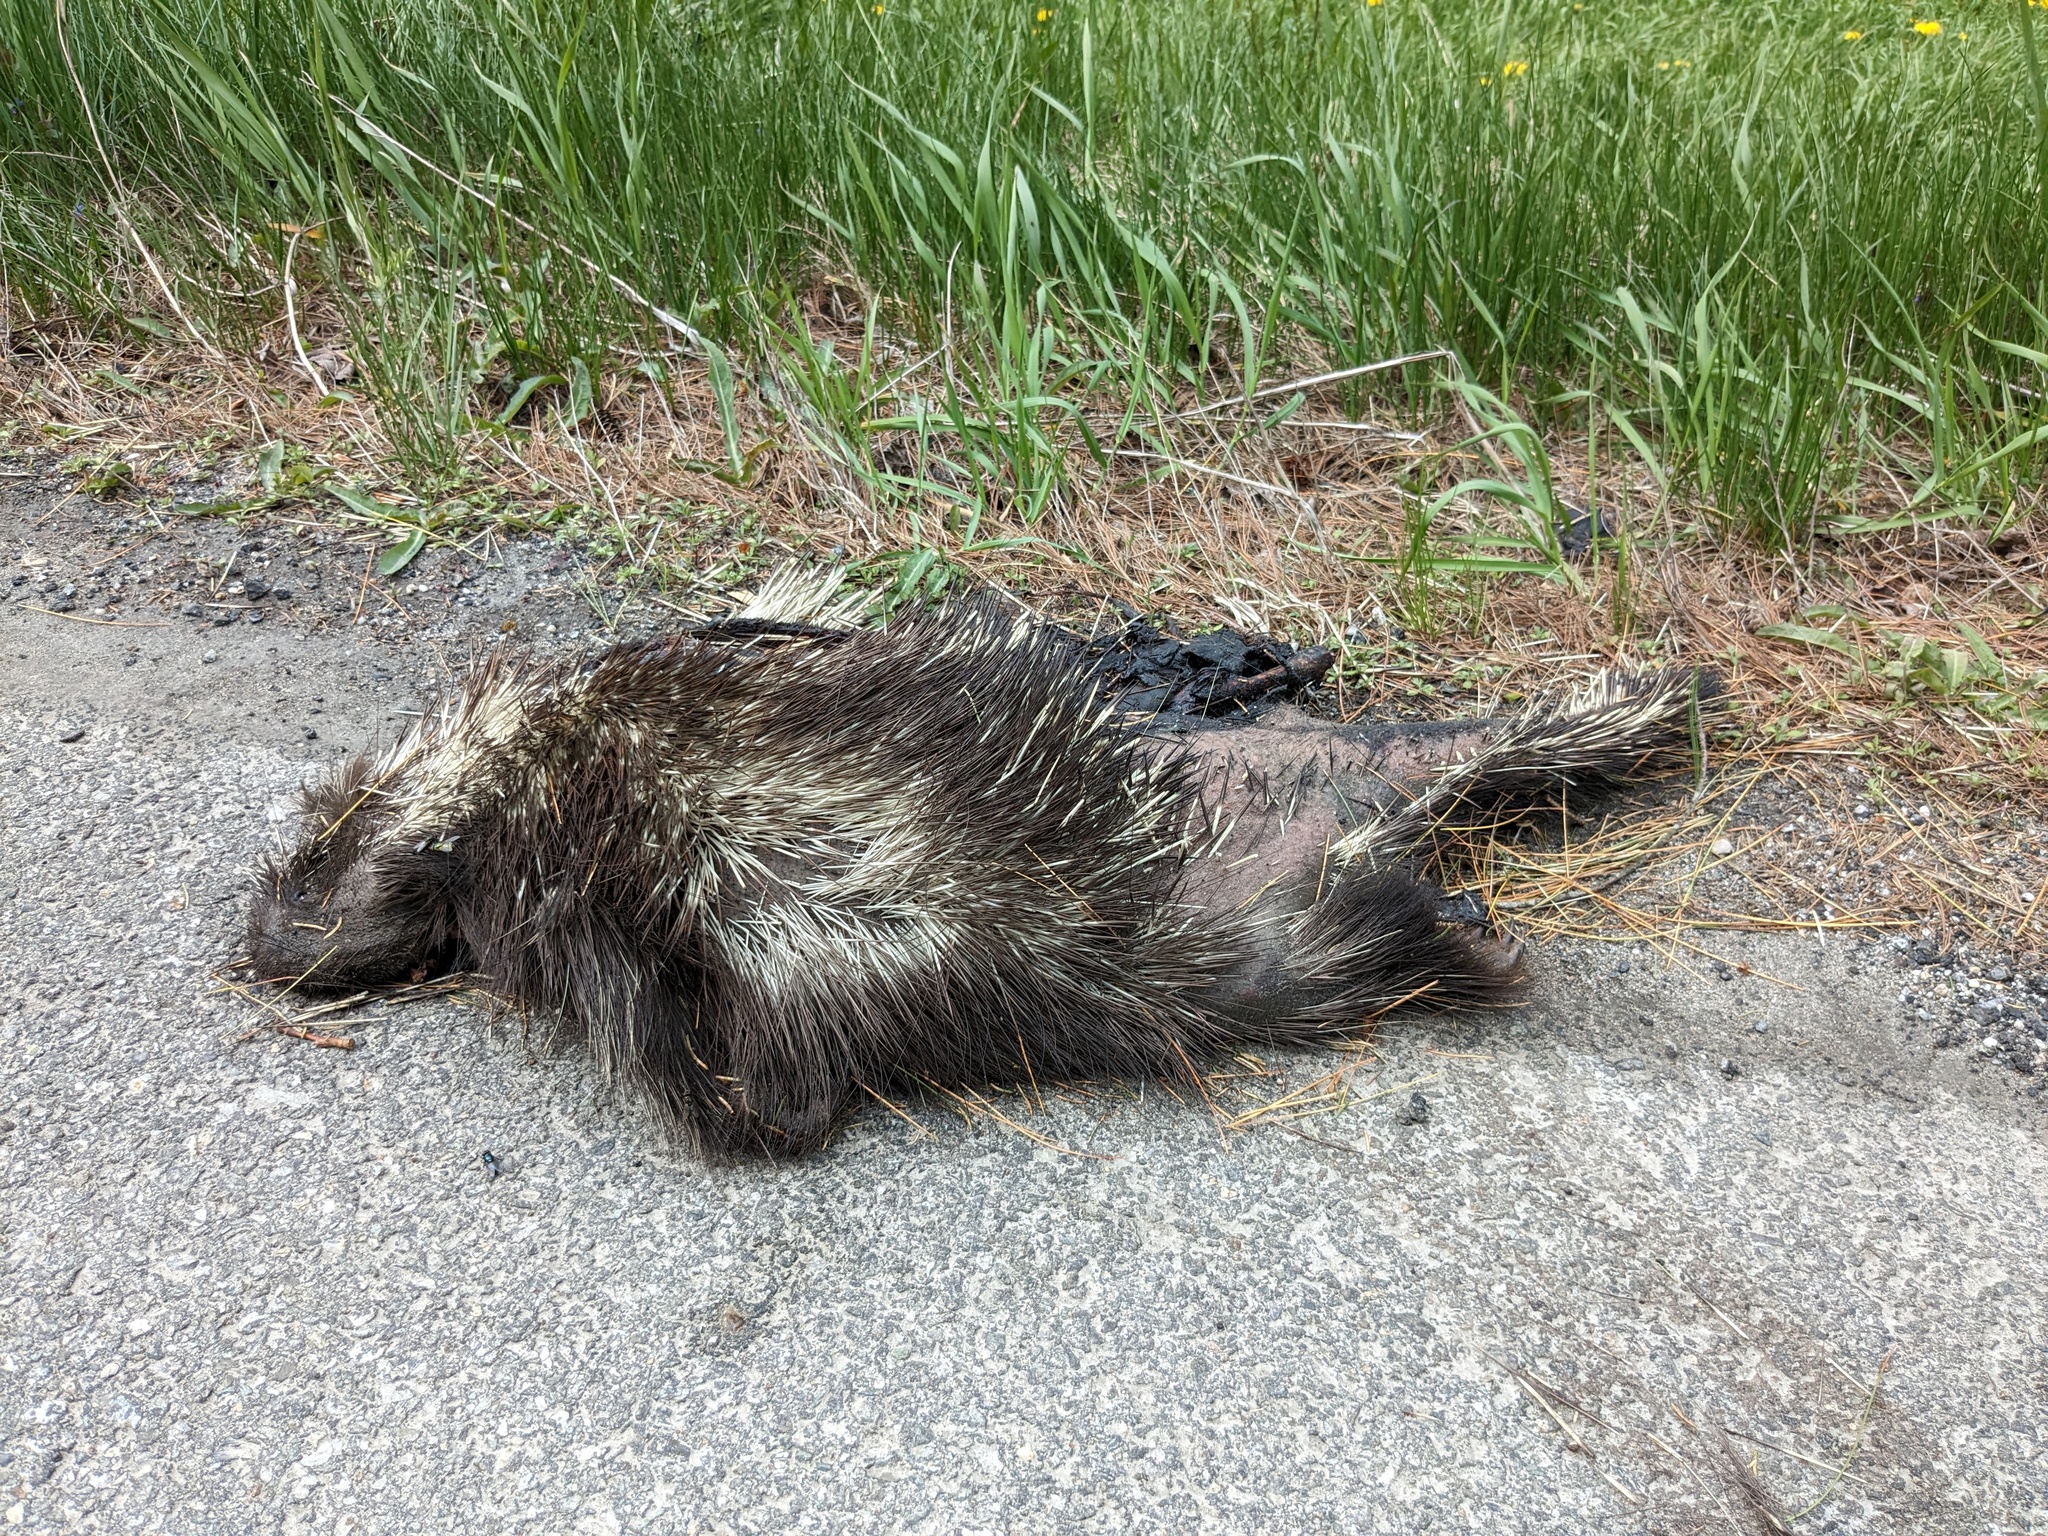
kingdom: Animalia
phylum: Chordata
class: Mammalia
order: Rodentia
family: Erethizontidae
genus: Erethizon
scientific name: Erethizon dorsatus
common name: North american porcupine
